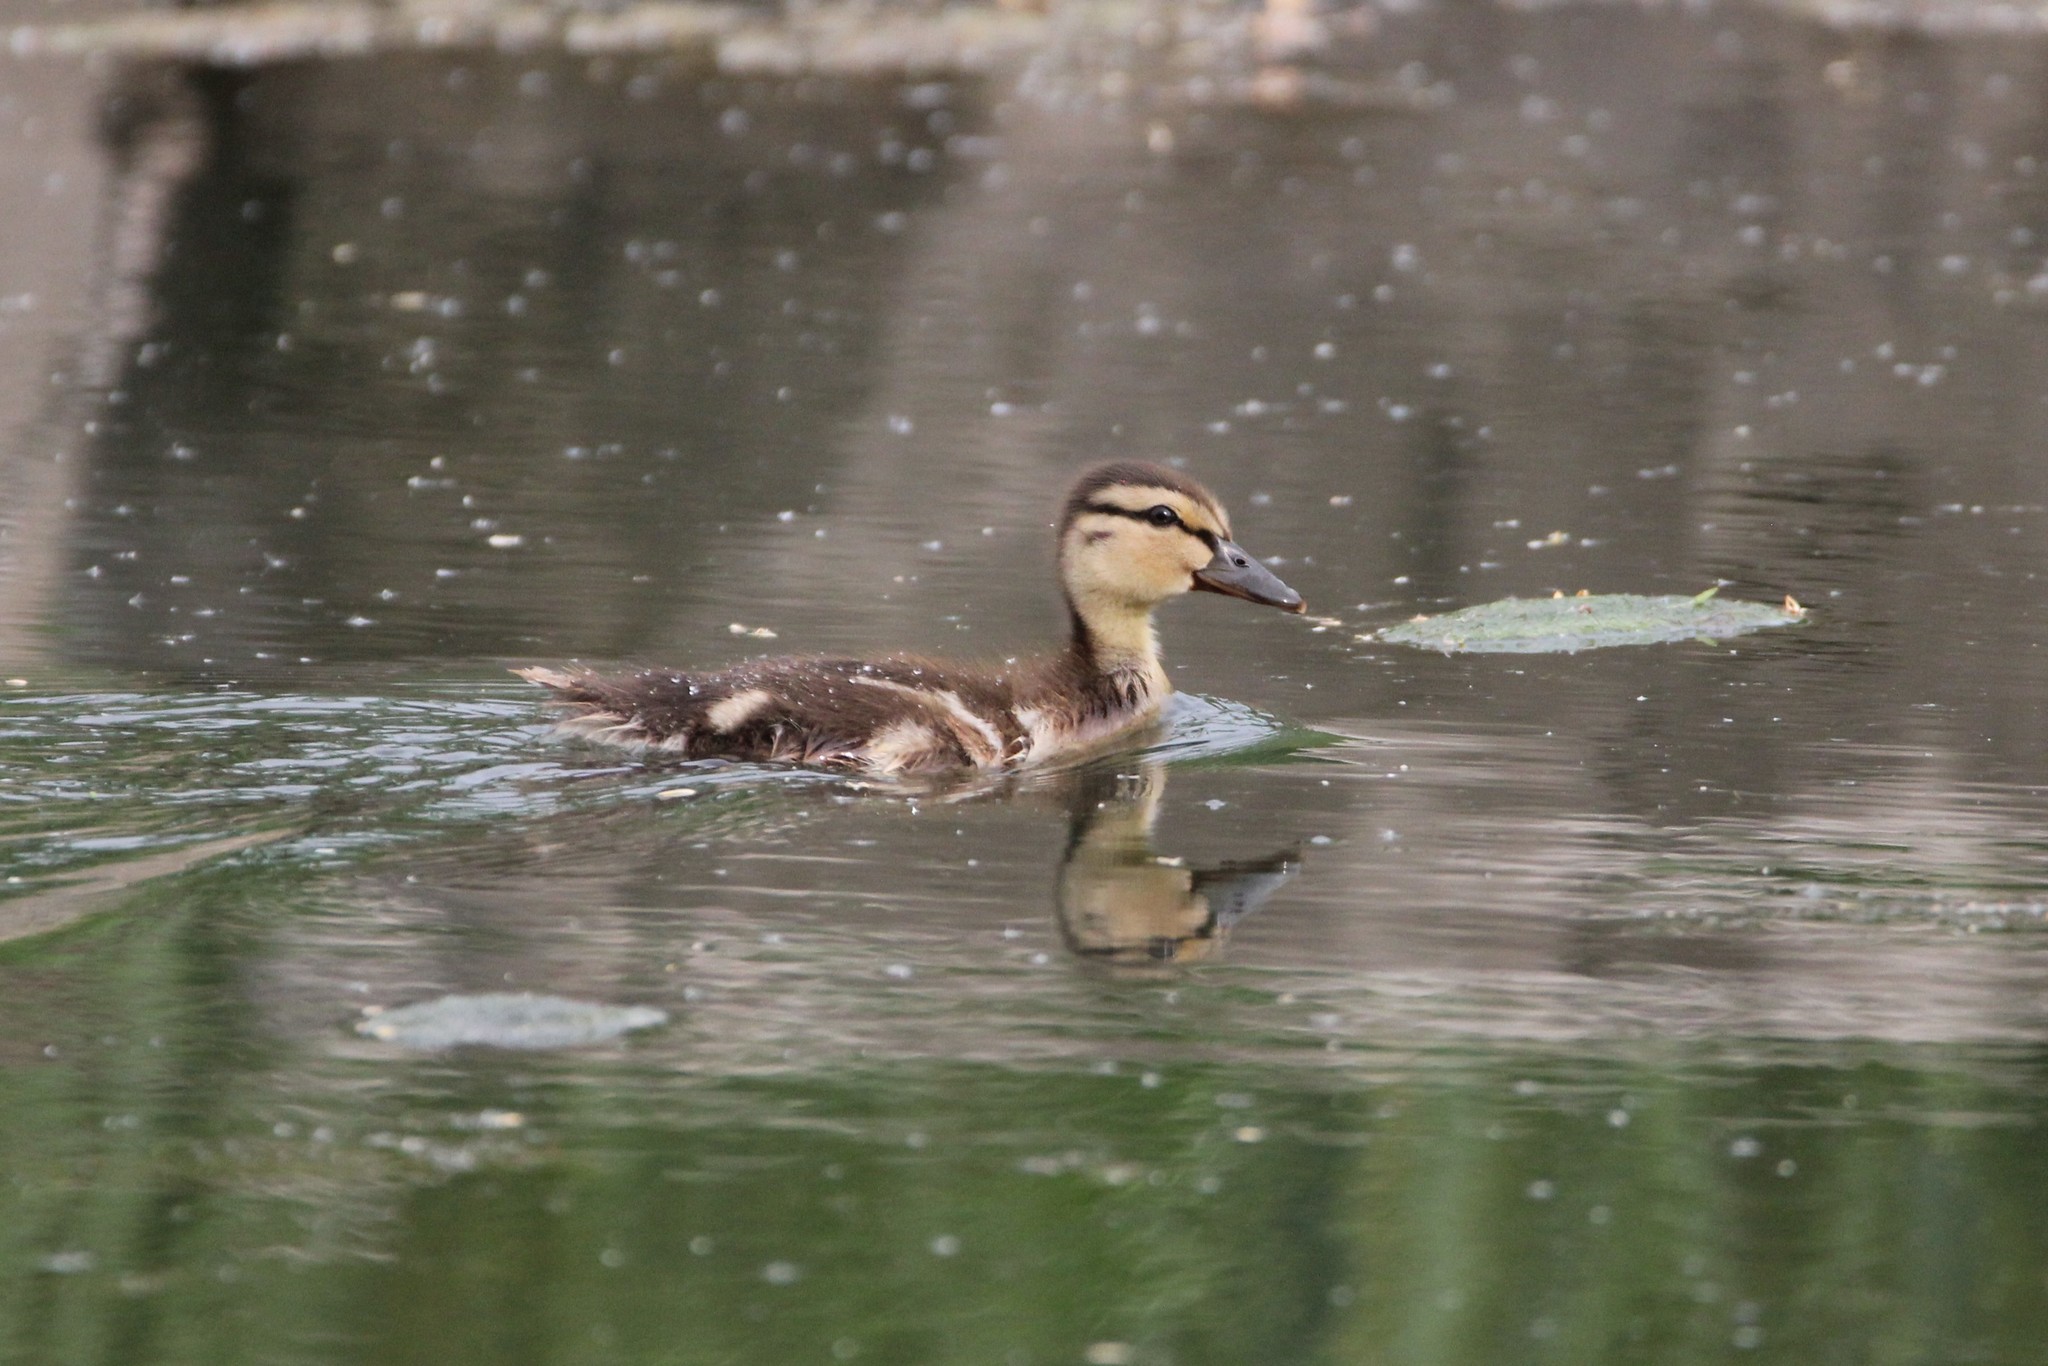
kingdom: Animalia
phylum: Chordata
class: Aves
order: Anseriformes
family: Anatidae
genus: Anas
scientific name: Anas platyrhynchos
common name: Mallard
